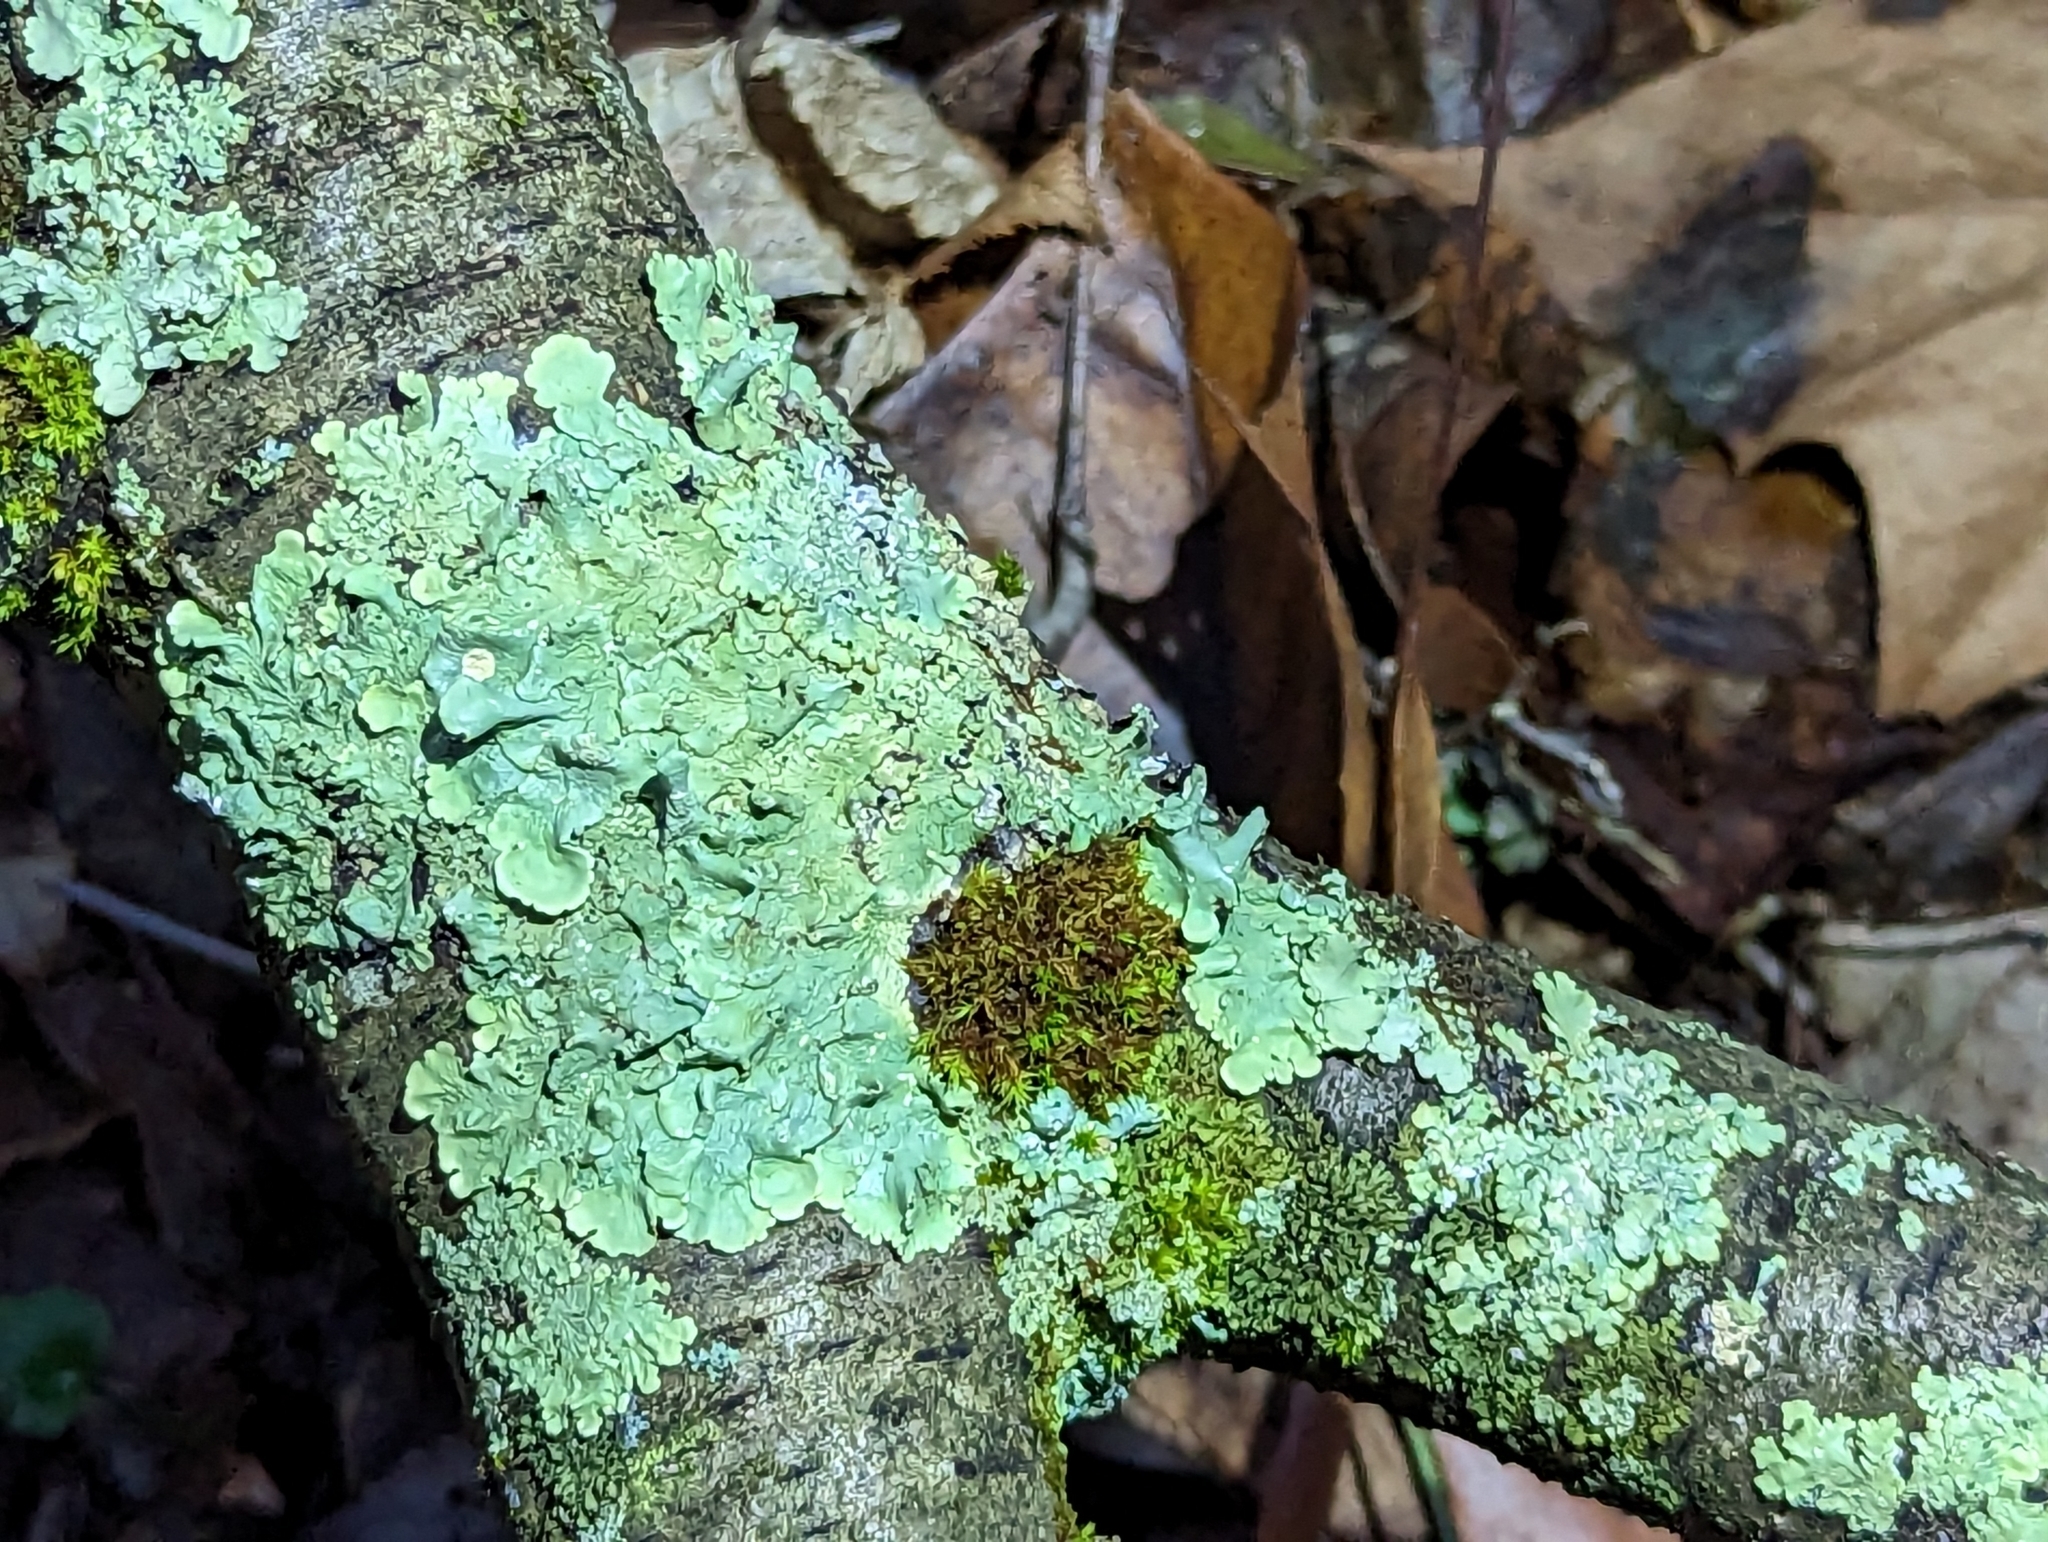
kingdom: Fungi
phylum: Ascomycota
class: Lecanoromycetes
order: Lecanorales
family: Parmeliaceae
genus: Flavoparmelia
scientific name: Flavoparmelia caperata
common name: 40-mile per hour lichen
